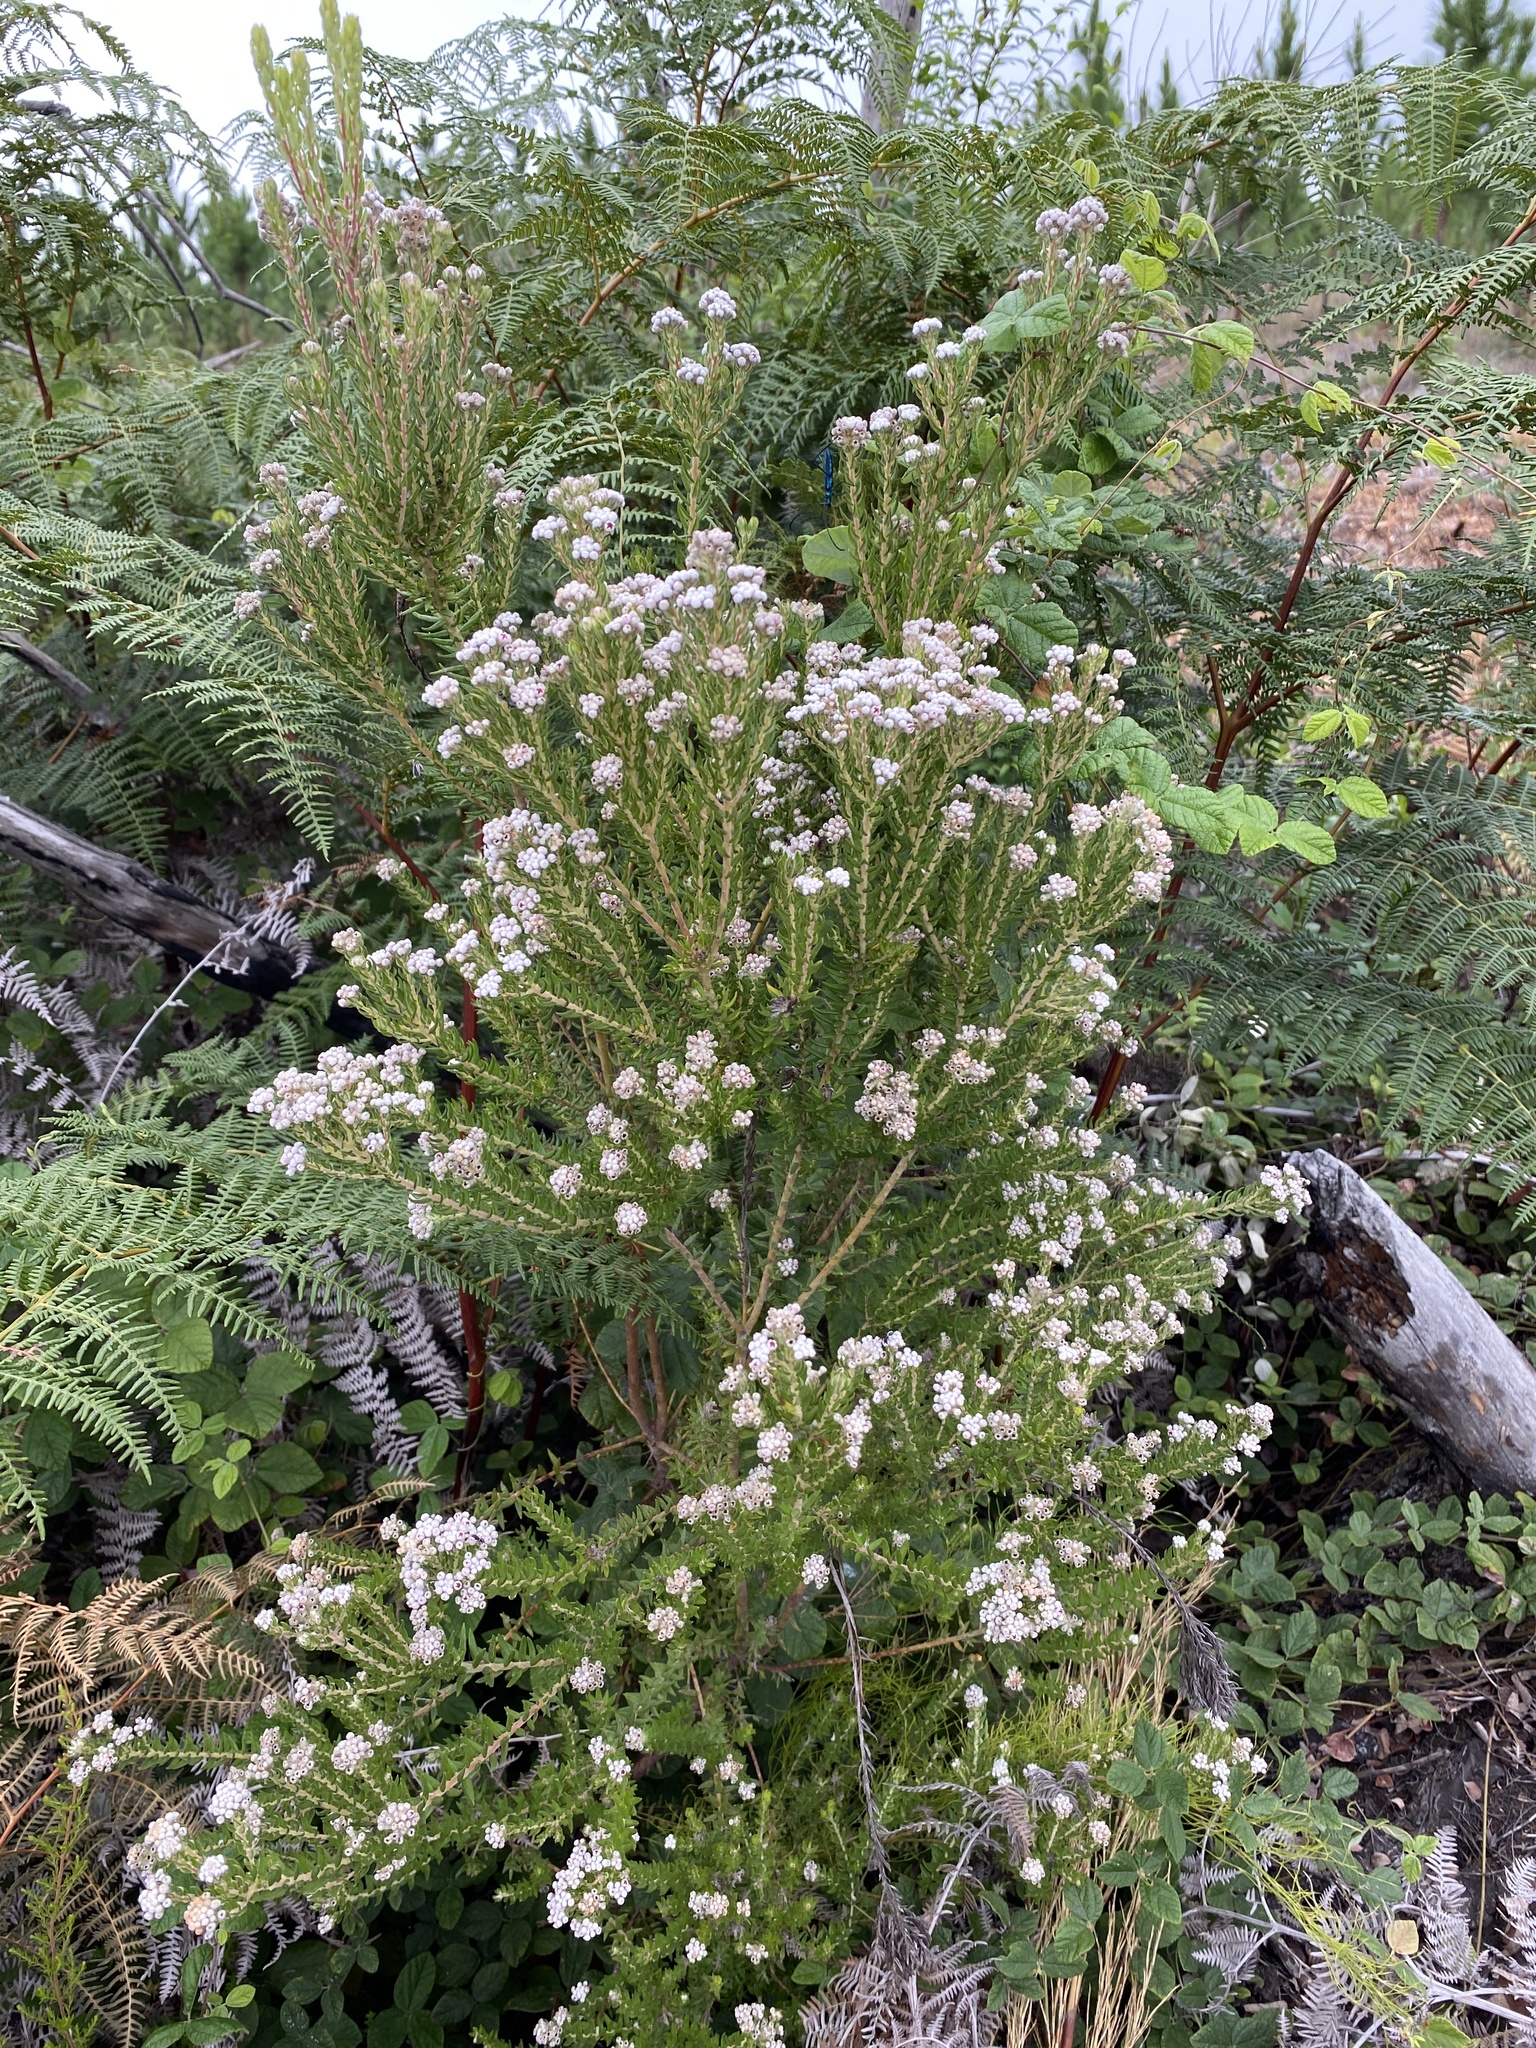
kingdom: Plantae
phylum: Tracheophyta
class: Magnoliopsida
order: Rosales
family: Rhamnaceae
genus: Phylica
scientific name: Phylica pinea
